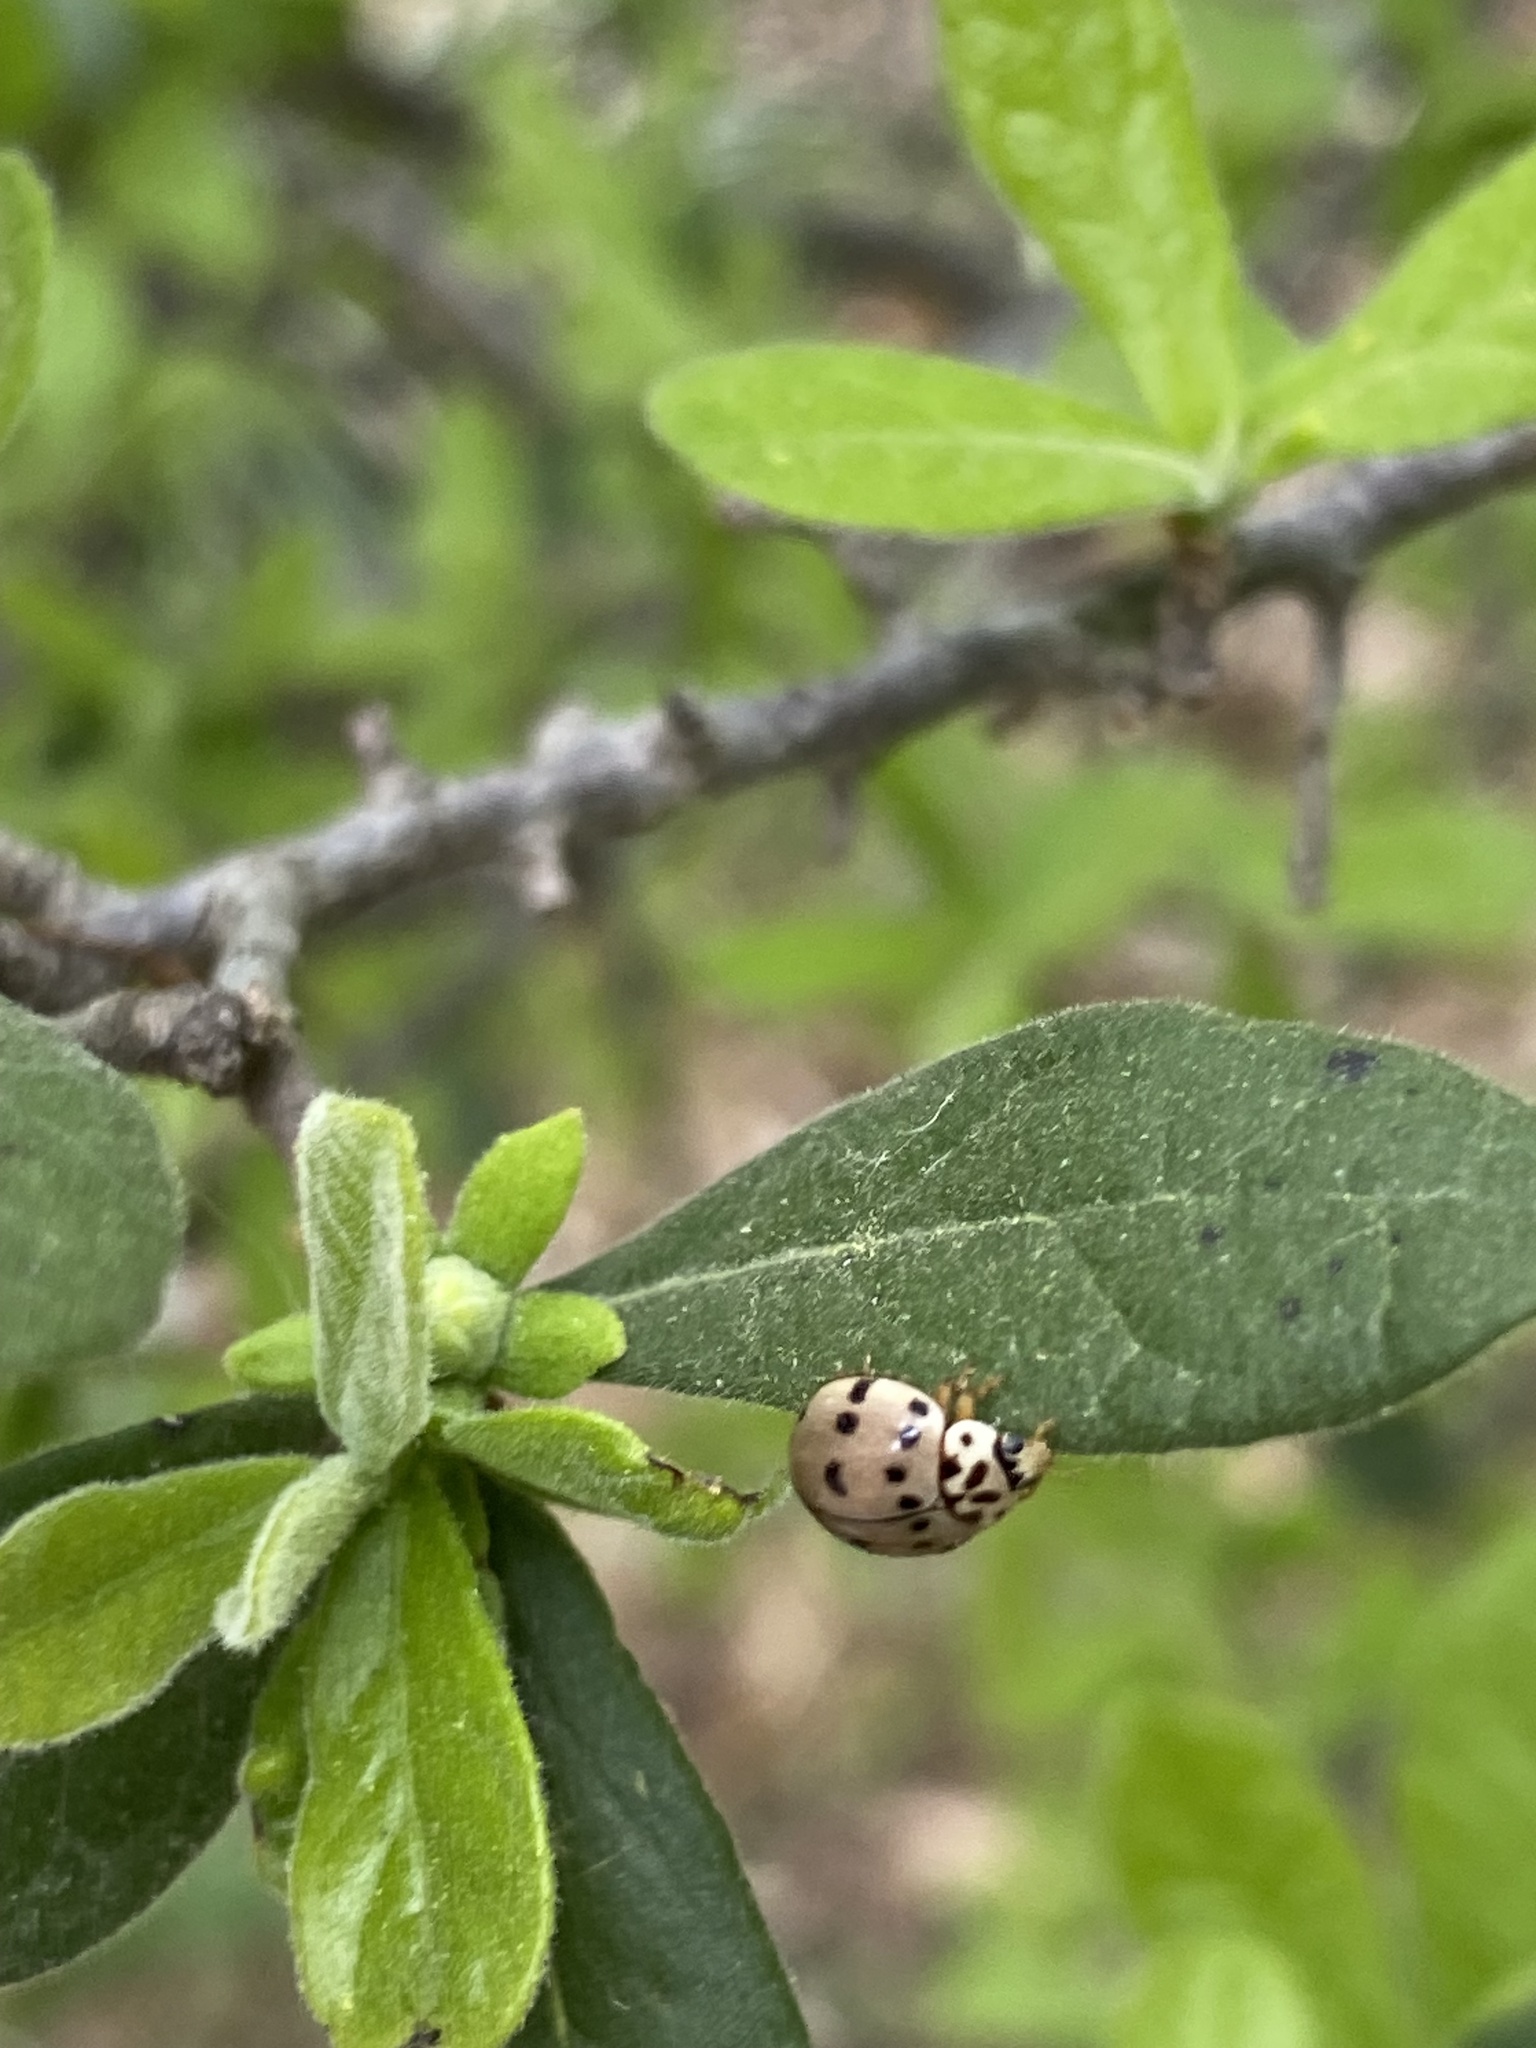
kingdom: Animalia
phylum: Arthropoda
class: Insecta
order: Coleoptera
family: Coccinellidae
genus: Olla
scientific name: Olla v-nigrum
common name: Ashy gray lady beetle
